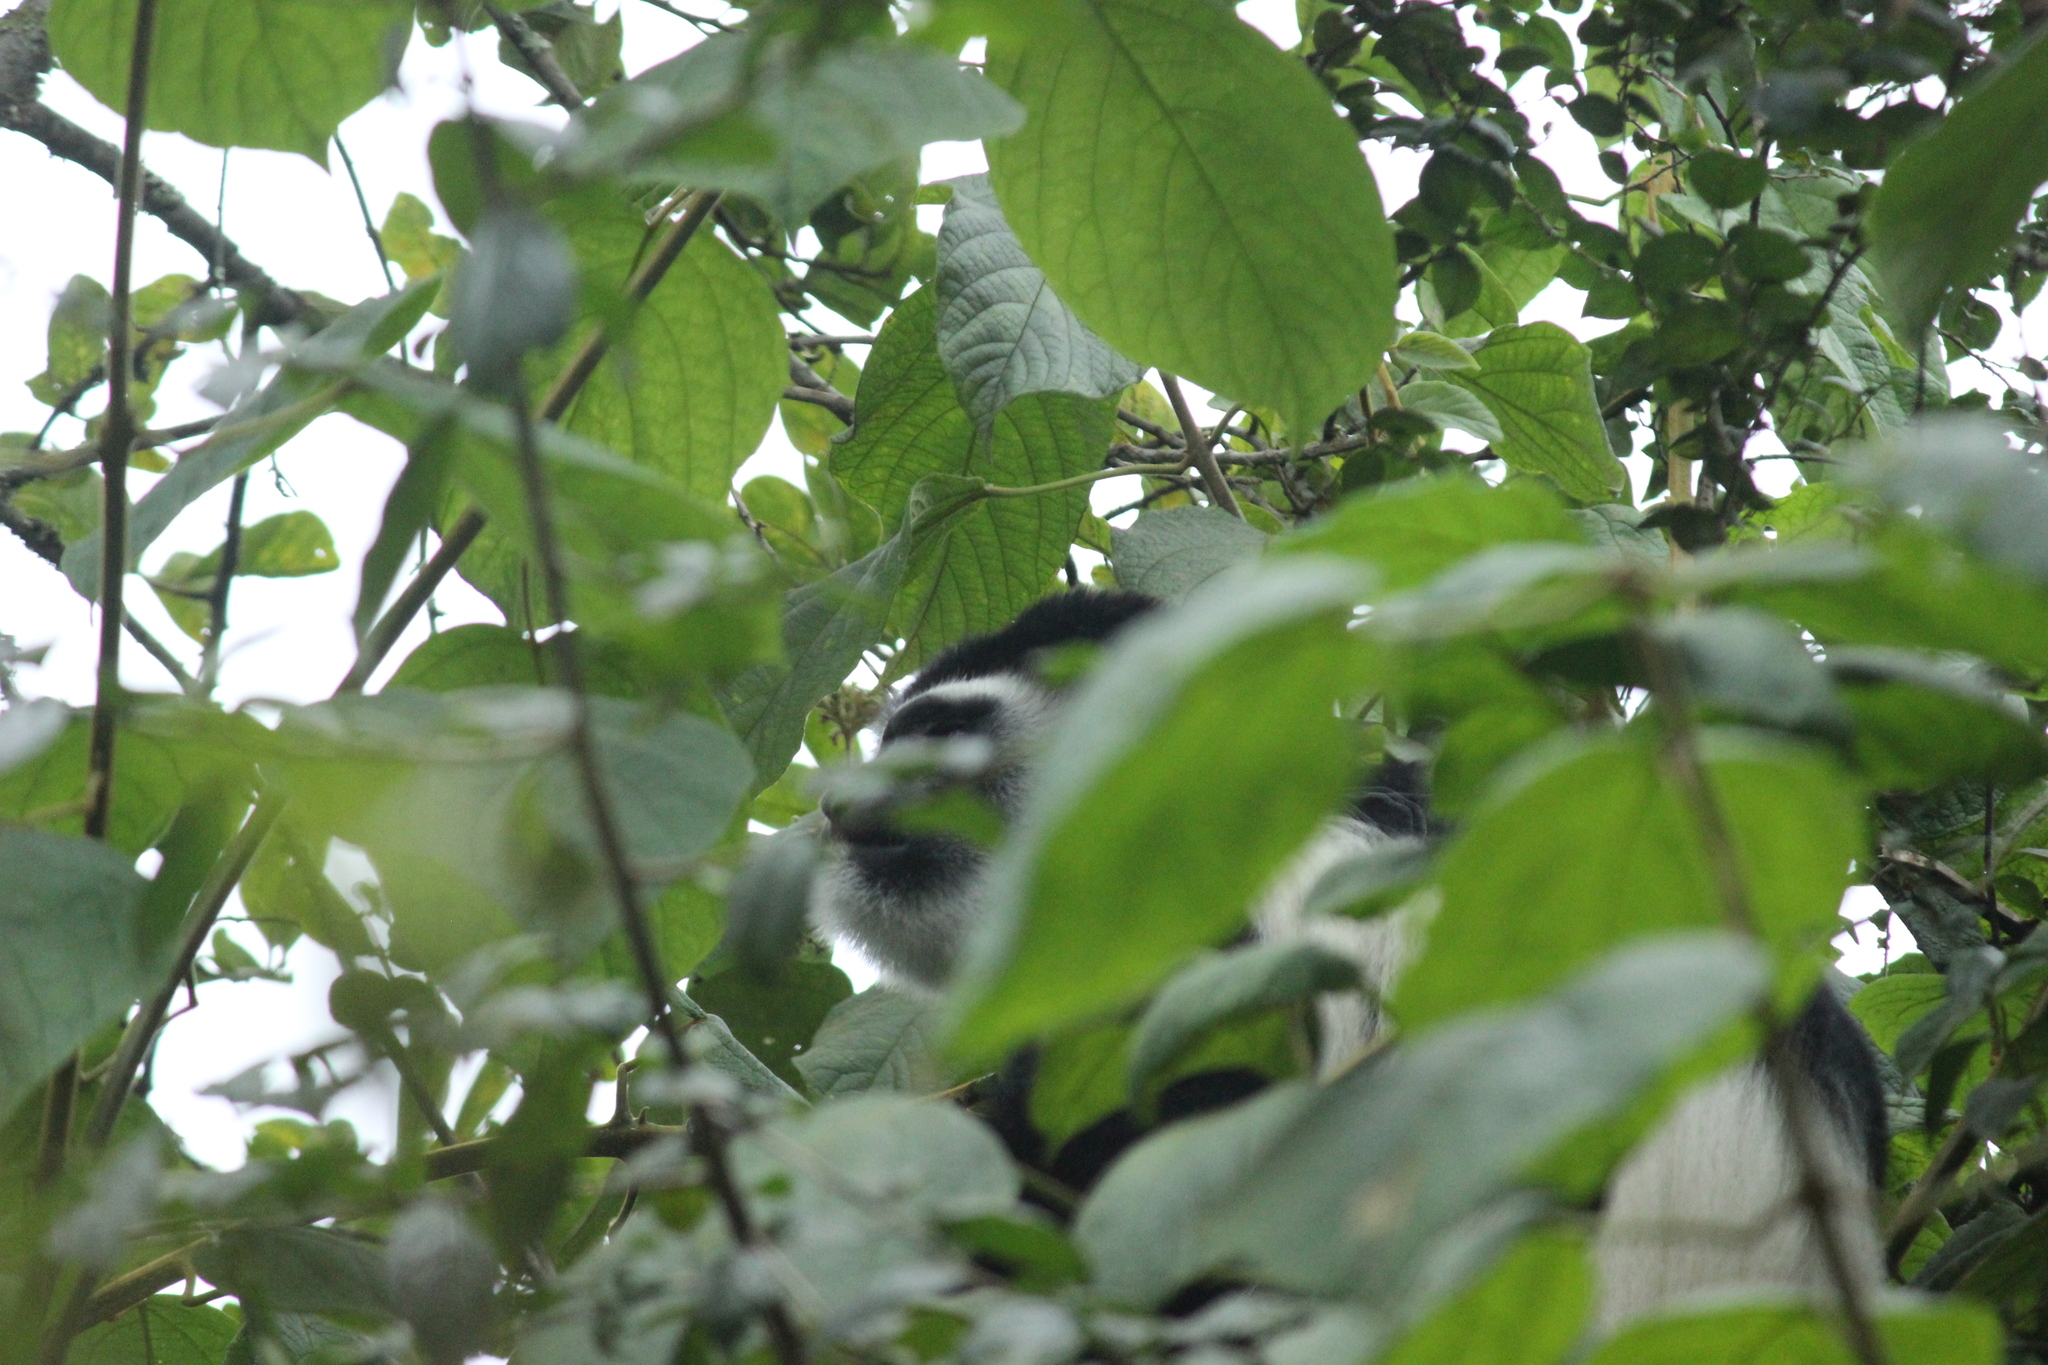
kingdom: Animalia
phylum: Chordata
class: Mammalia
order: Primates
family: Cercopithecidae
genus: Colobus
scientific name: Colobus caudatus
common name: Mount kilimanjaro guereza
